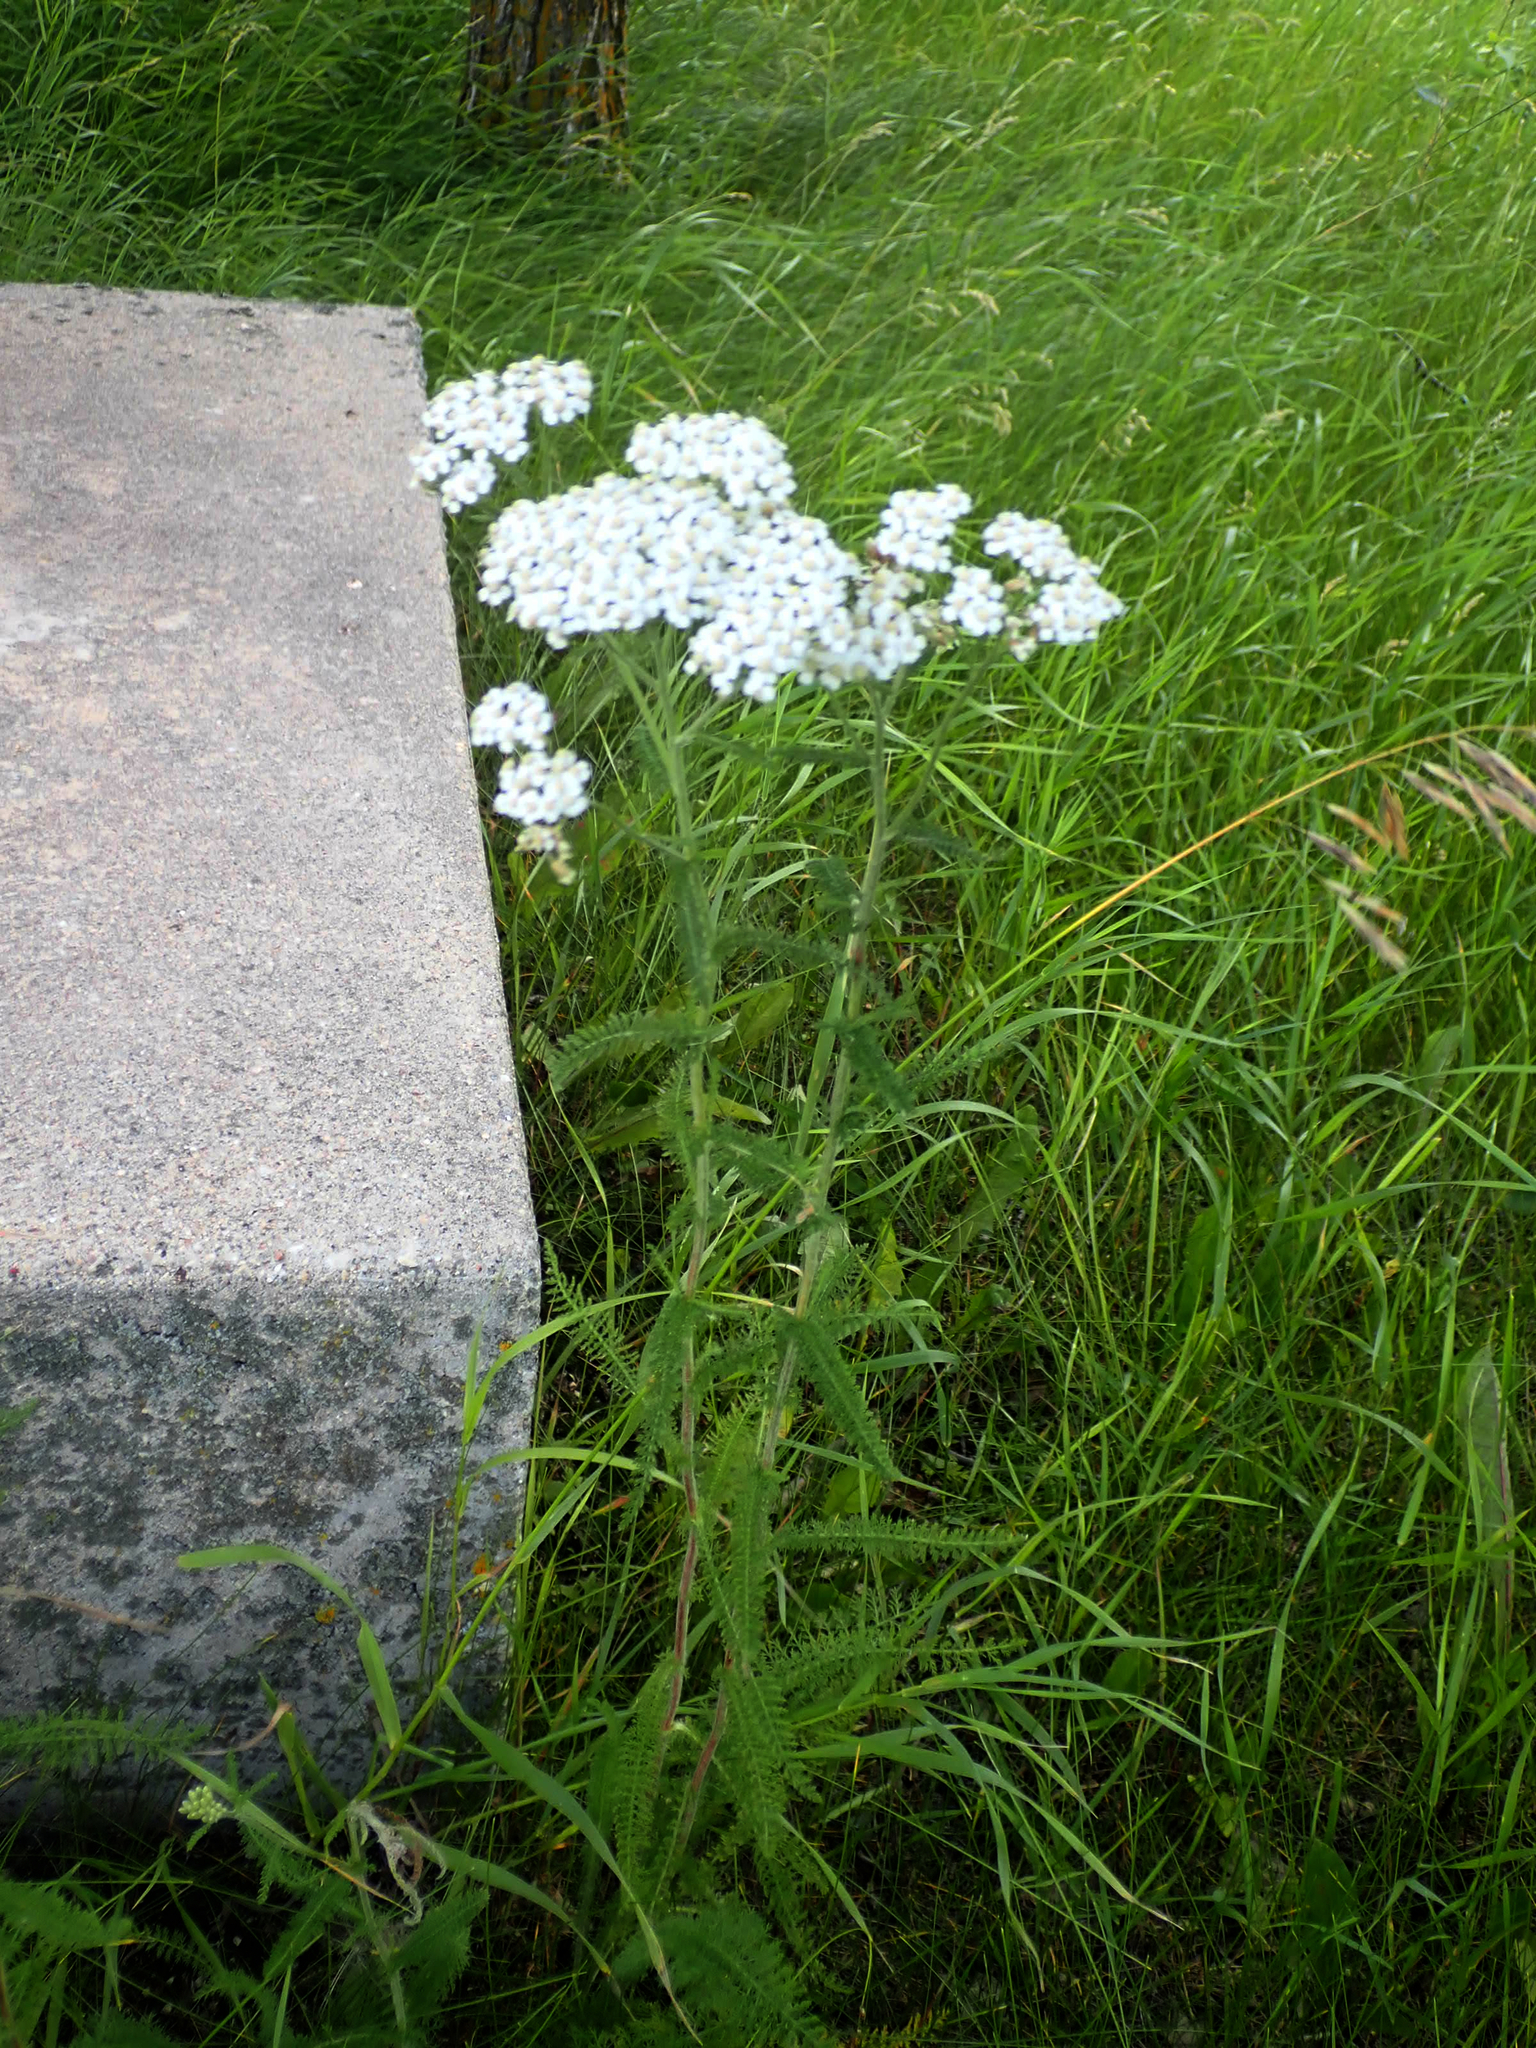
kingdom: Plantae
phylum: Tracheophyta
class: Magnoliopsida
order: Asterales
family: Asteraceae
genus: Achillea
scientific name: Achillea millefolium
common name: Yarrow
